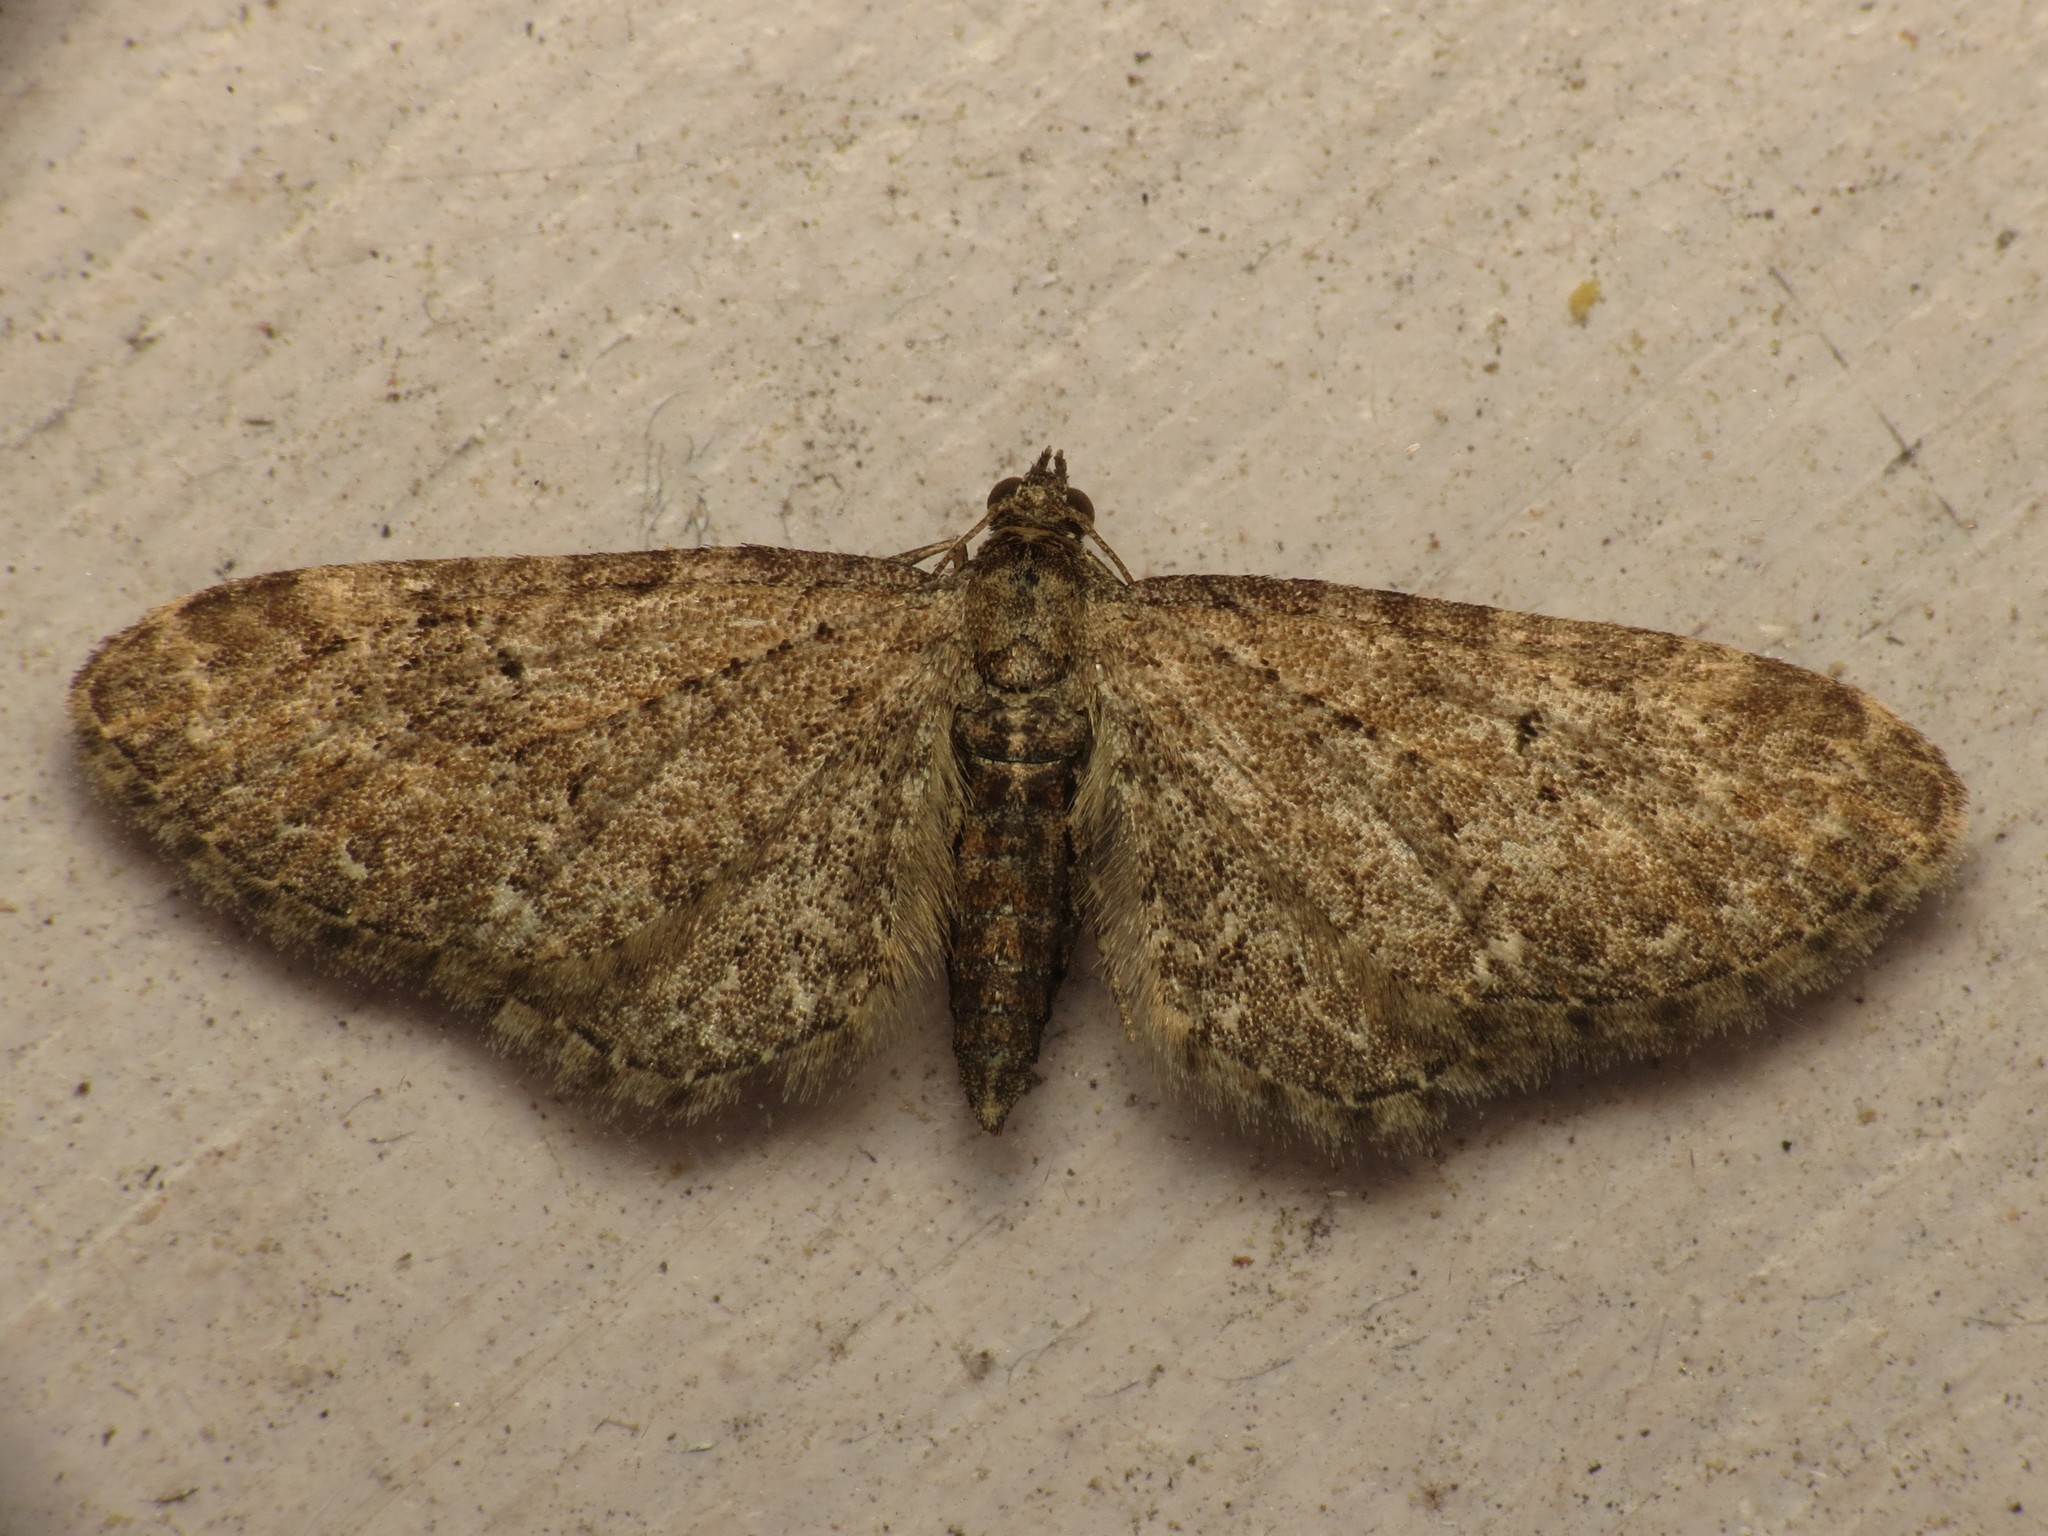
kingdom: Animalia
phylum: Arthropoda
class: Insecta
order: Lepidoptera
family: Geometridae
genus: Eupithecia
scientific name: Eupithecia vulgata
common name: Common pug
